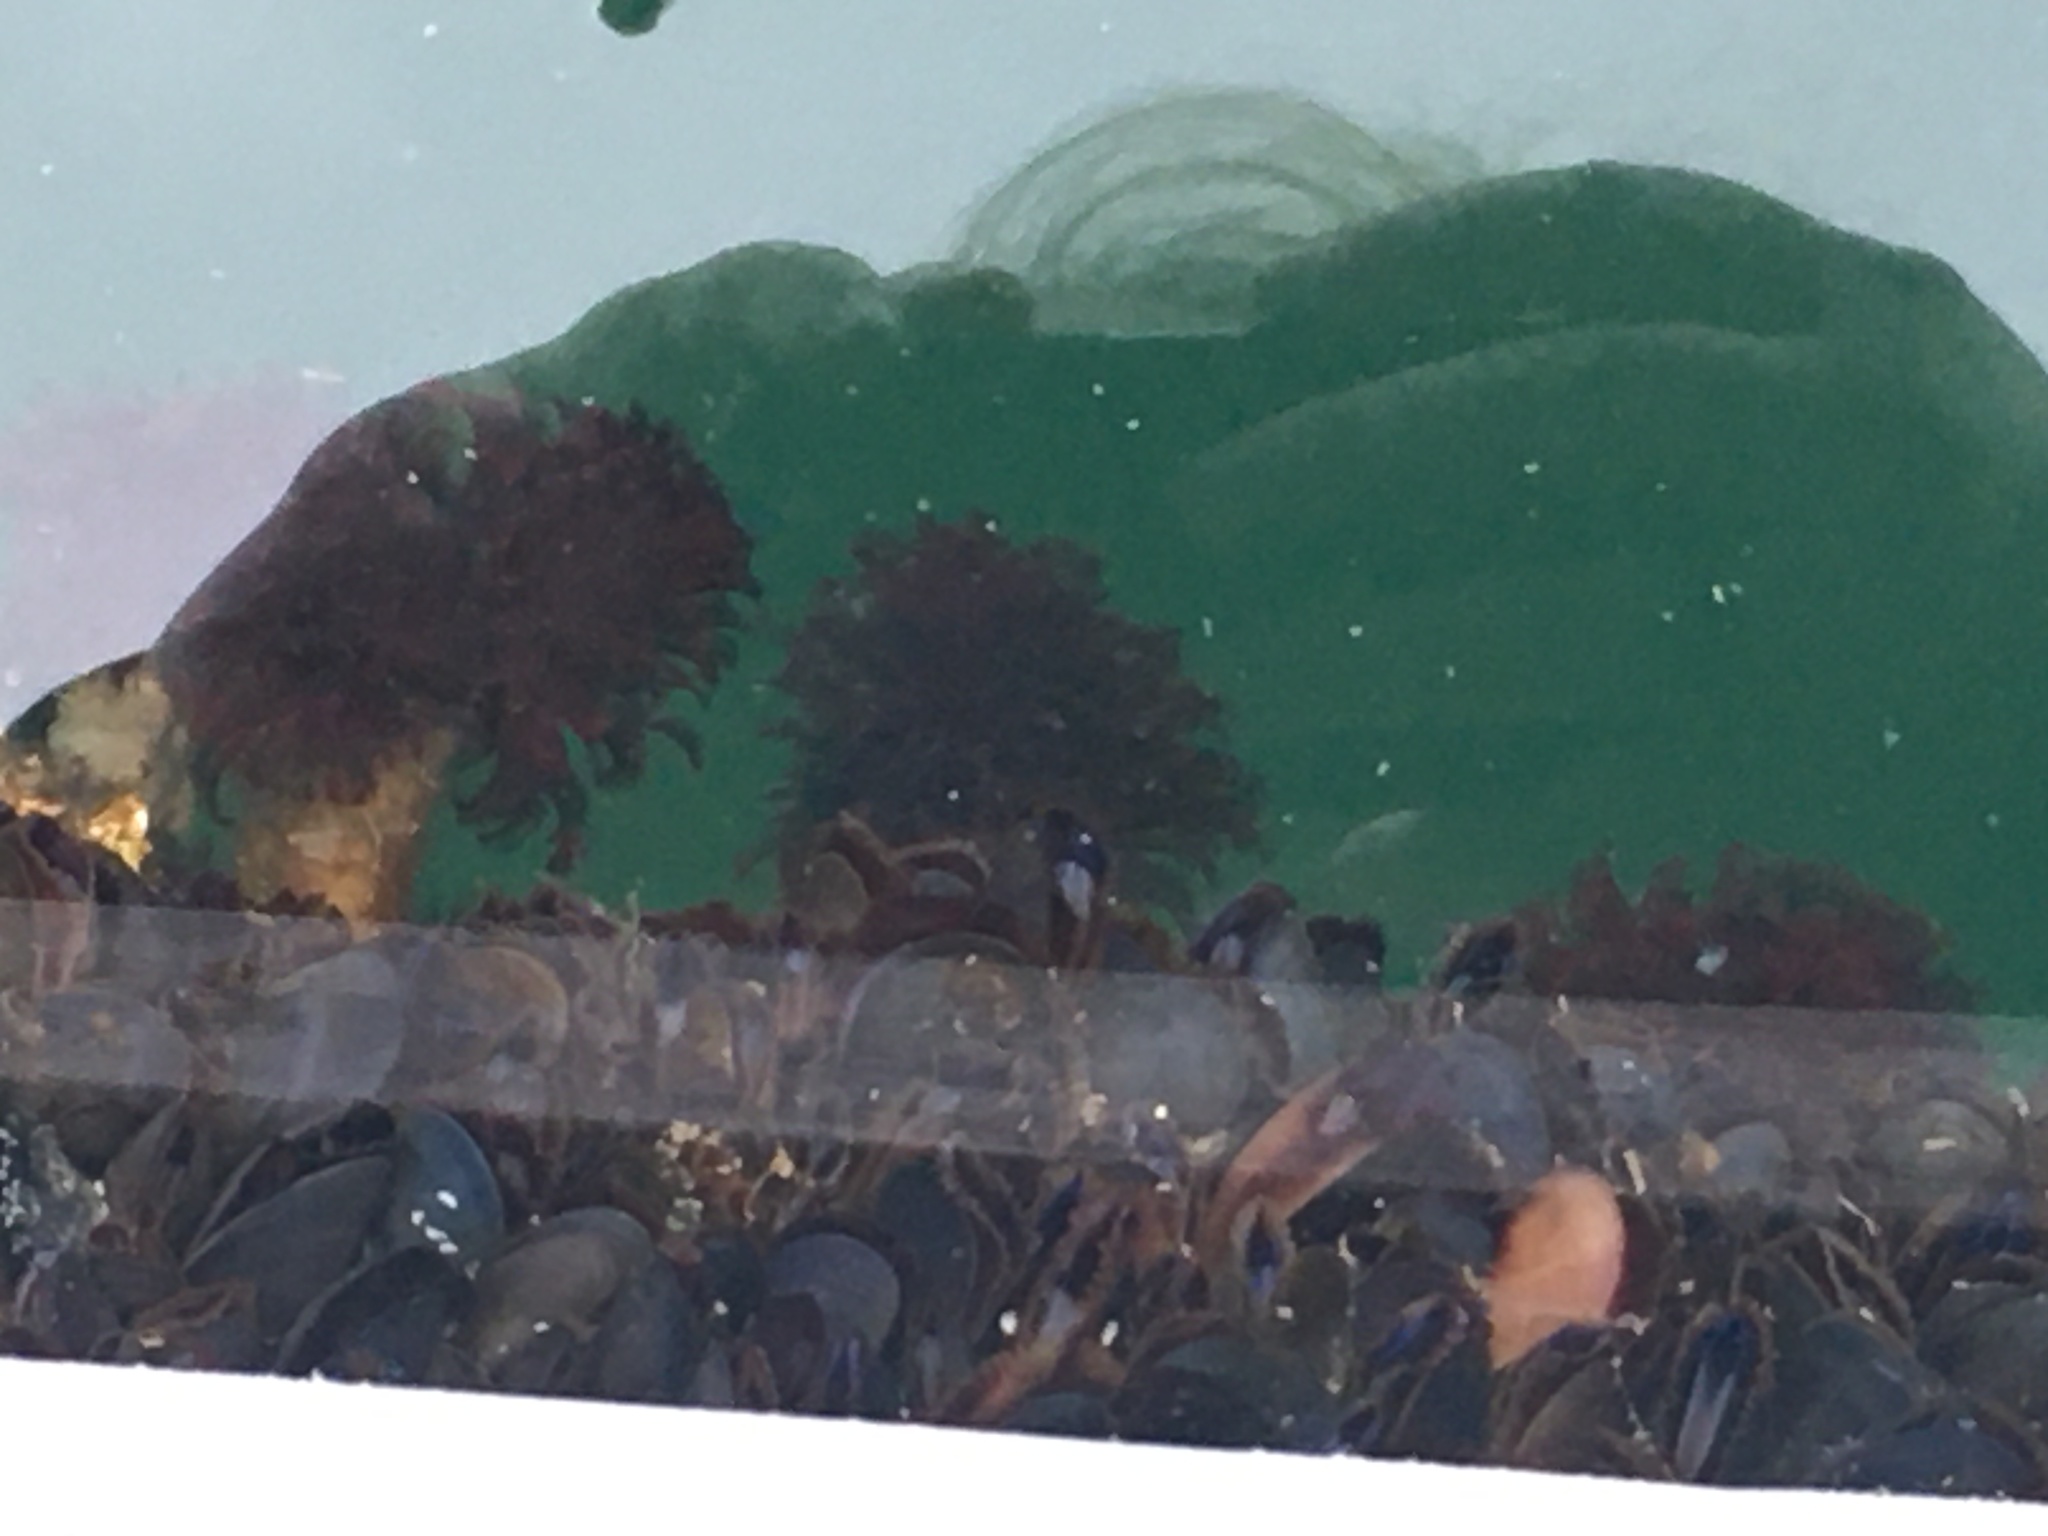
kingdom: Animalia
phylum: Annelida
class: Polychaeta
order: Sabellida
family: Sabellidae
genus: Eudistylia
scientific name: Eudistylia vancouveri
